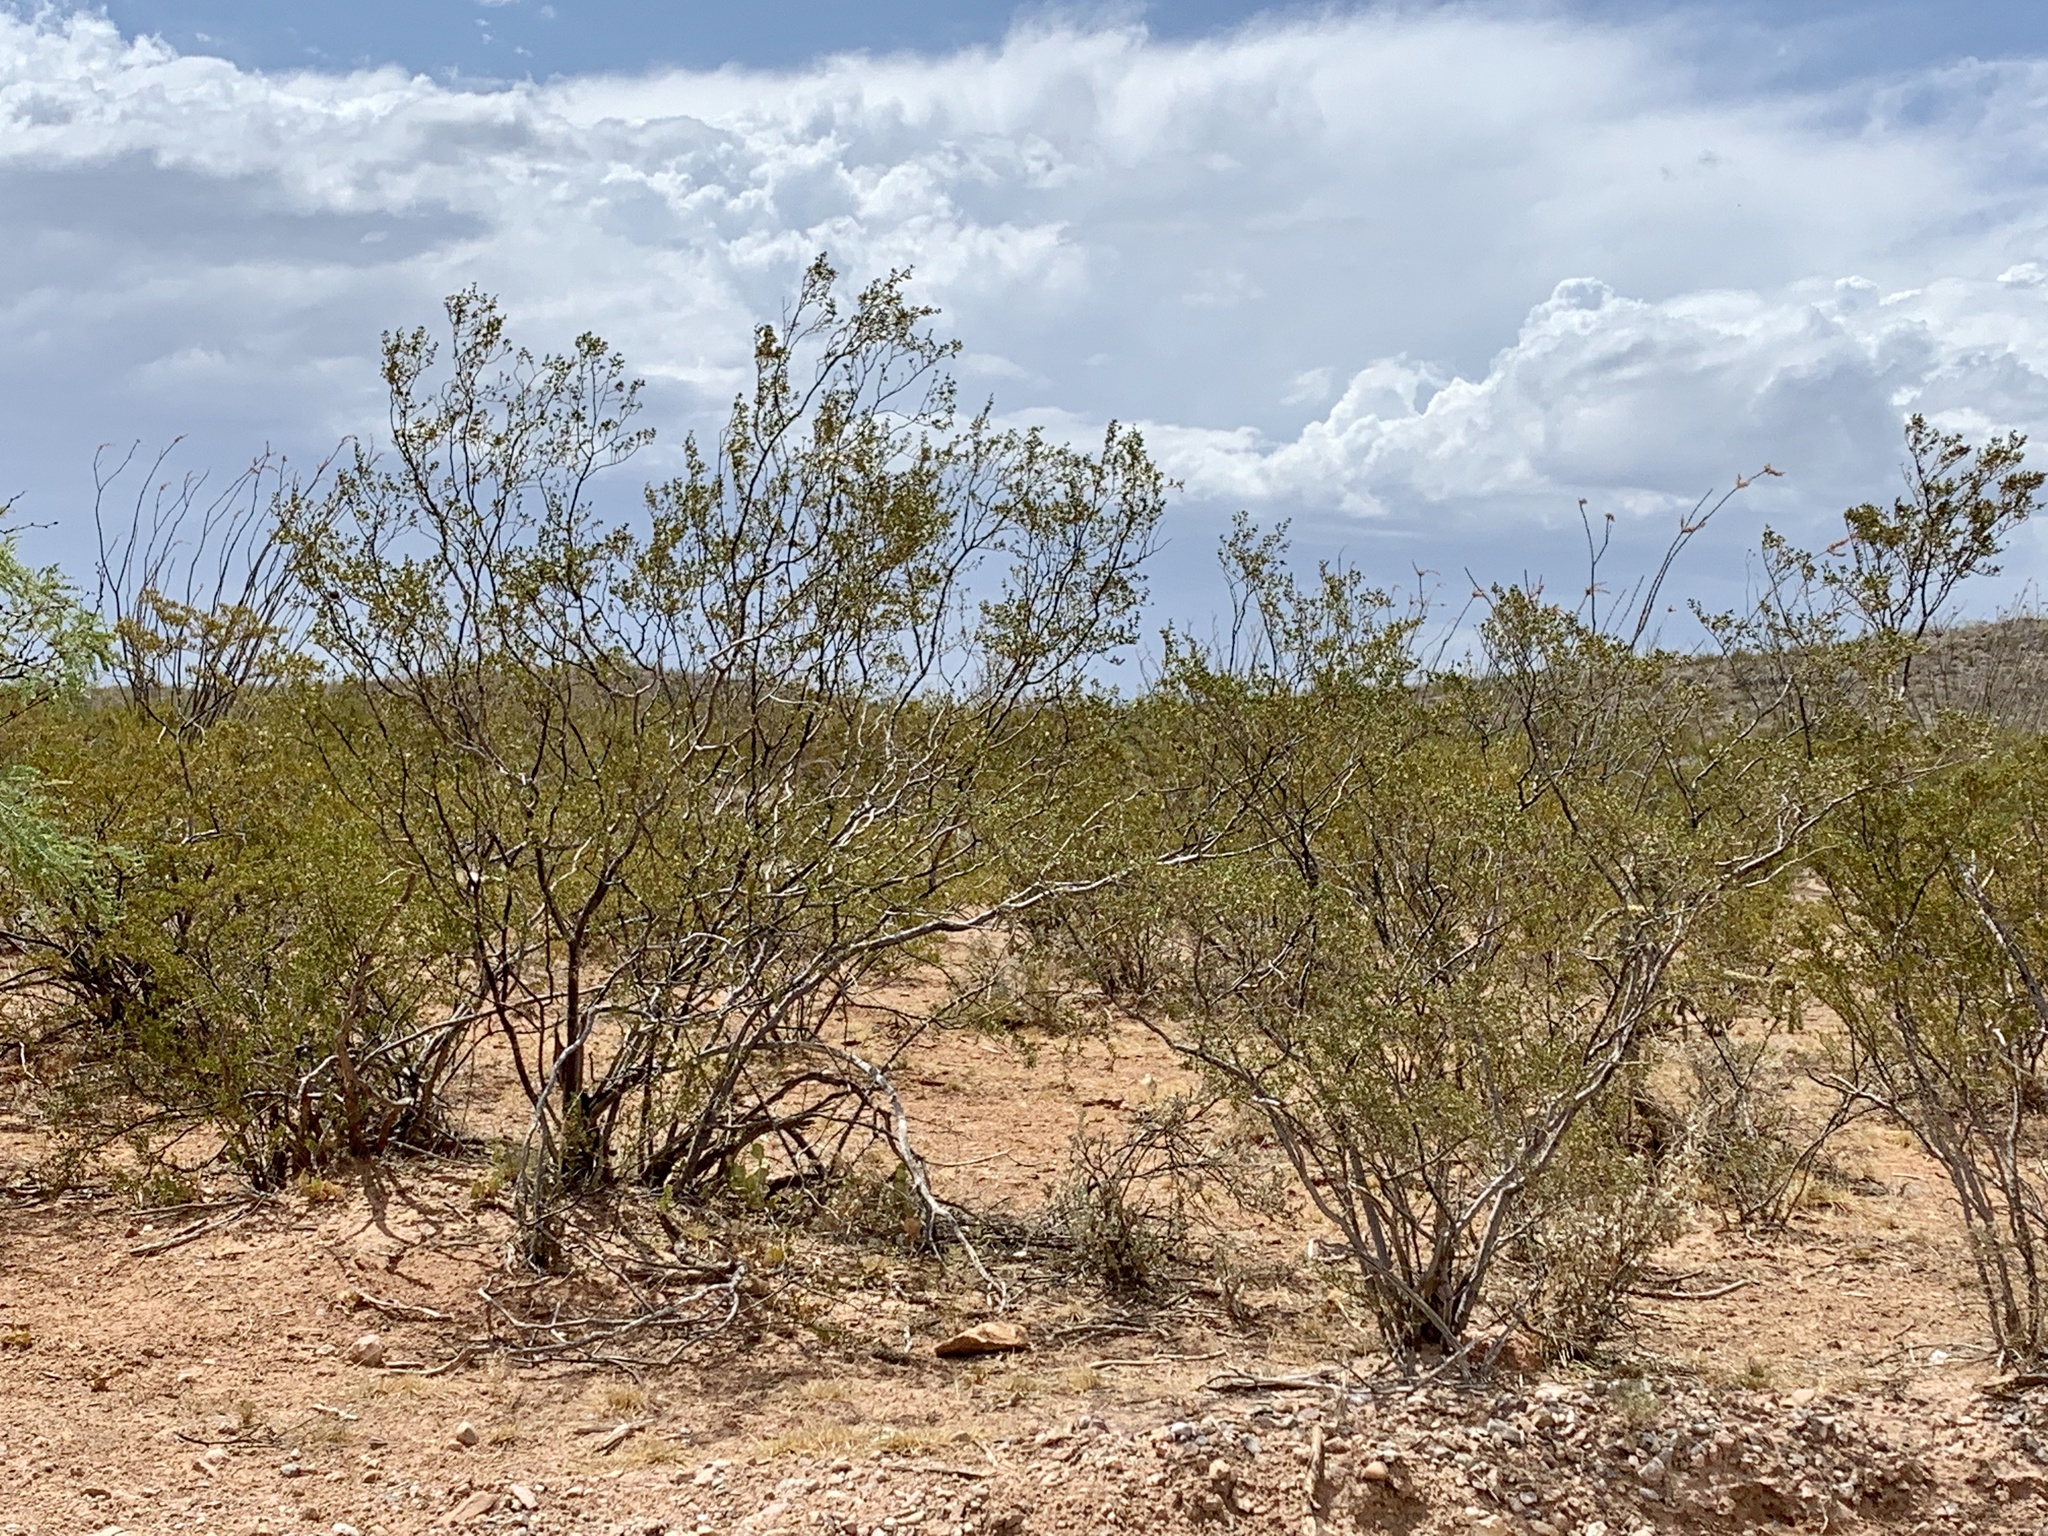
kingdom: Plantae
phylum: Tracheophyta
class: Magnoliopsida
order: Zygophyllales
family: Zygophyllaceae
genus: Larrea
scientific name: Larrea tridentata
